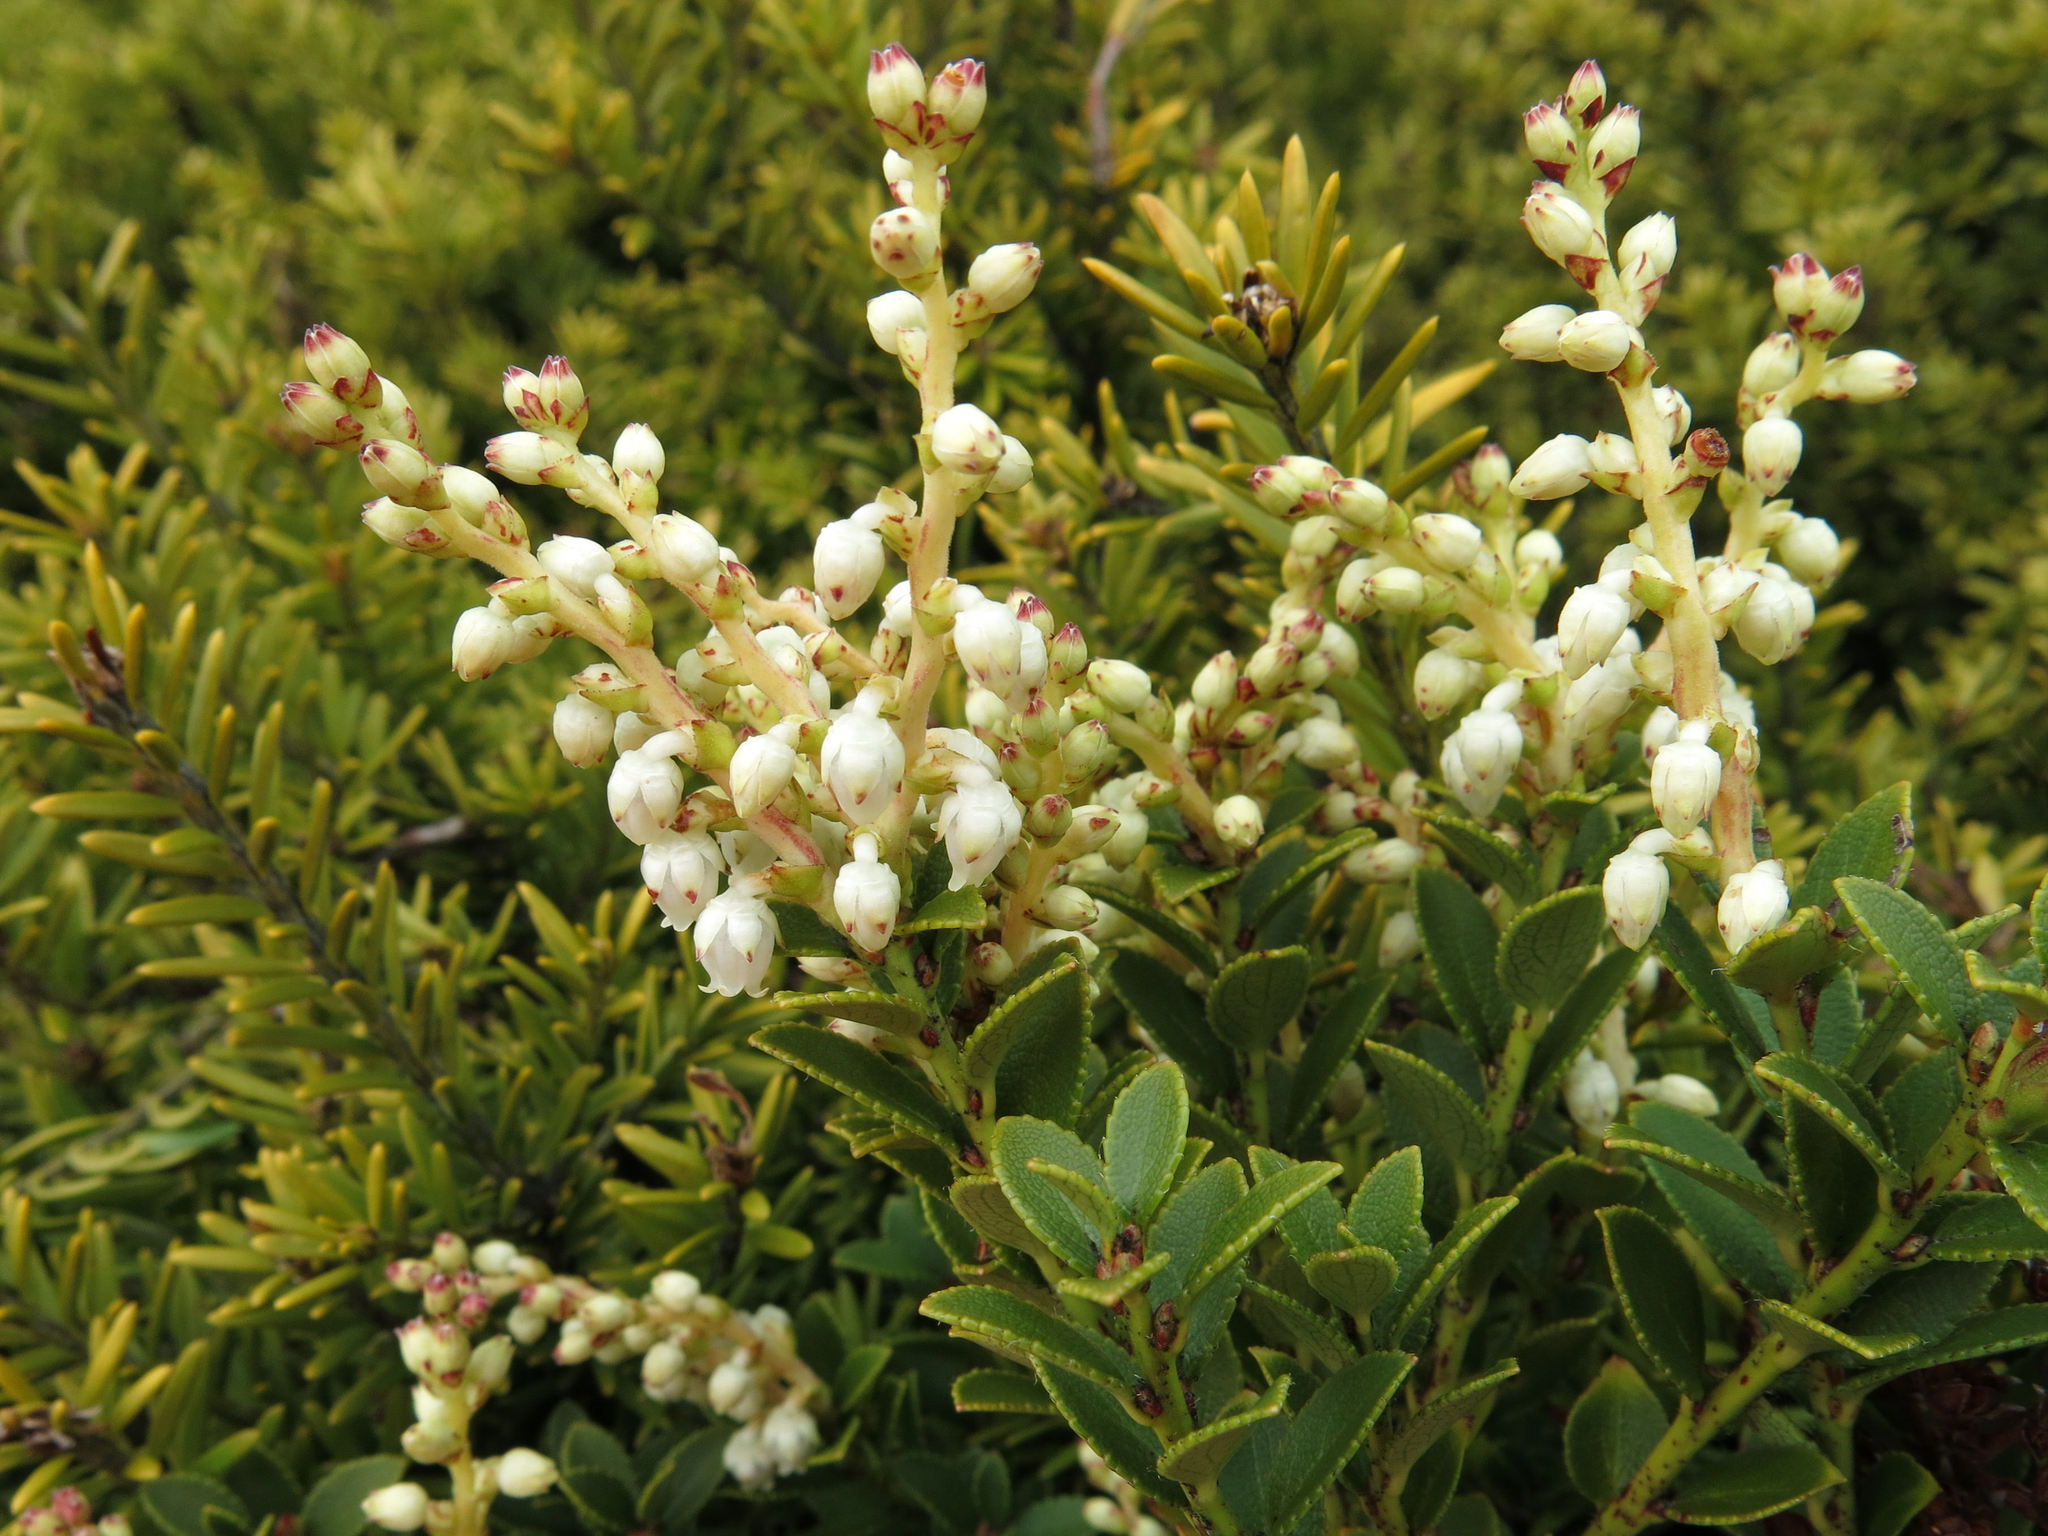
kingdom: Plantae
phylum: Tracheophyta
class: Magnoliopsida
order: Ericales
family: Ericaceae
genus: Gaultheria
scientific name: Gaultheria crassa
